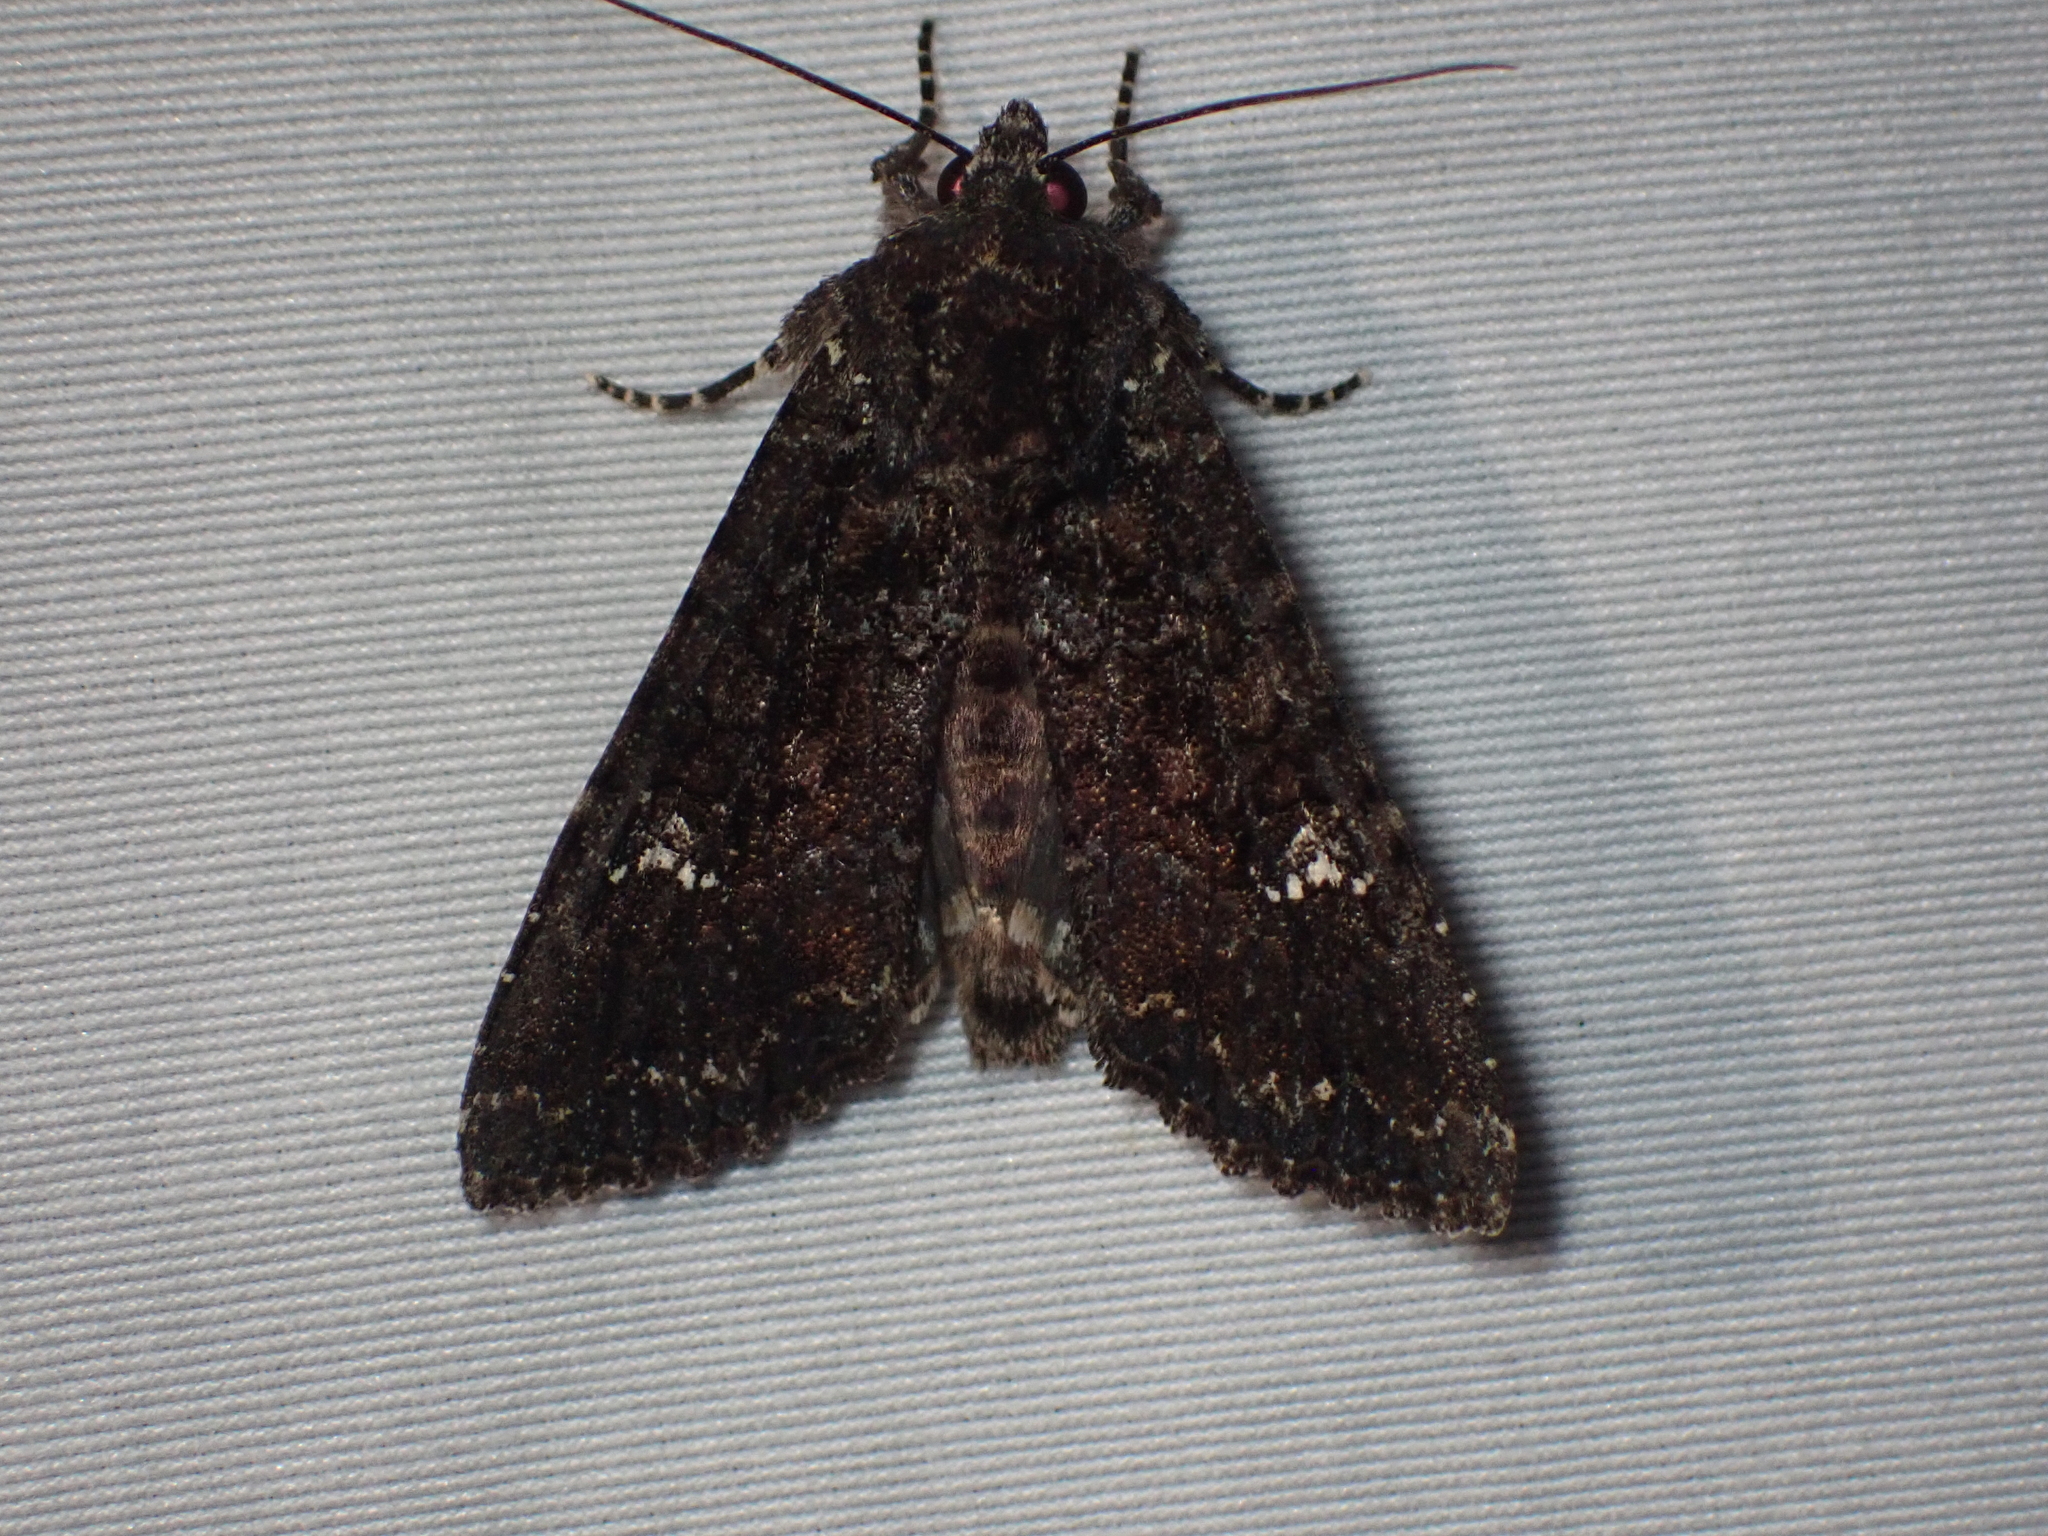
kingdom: Animalia
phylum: Arthropoda
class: Insecta
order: Lepidoptera
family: Noctuidae
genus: Apamea
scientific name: Apamea amputatrix
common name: Yellow-headed cutworm moth
